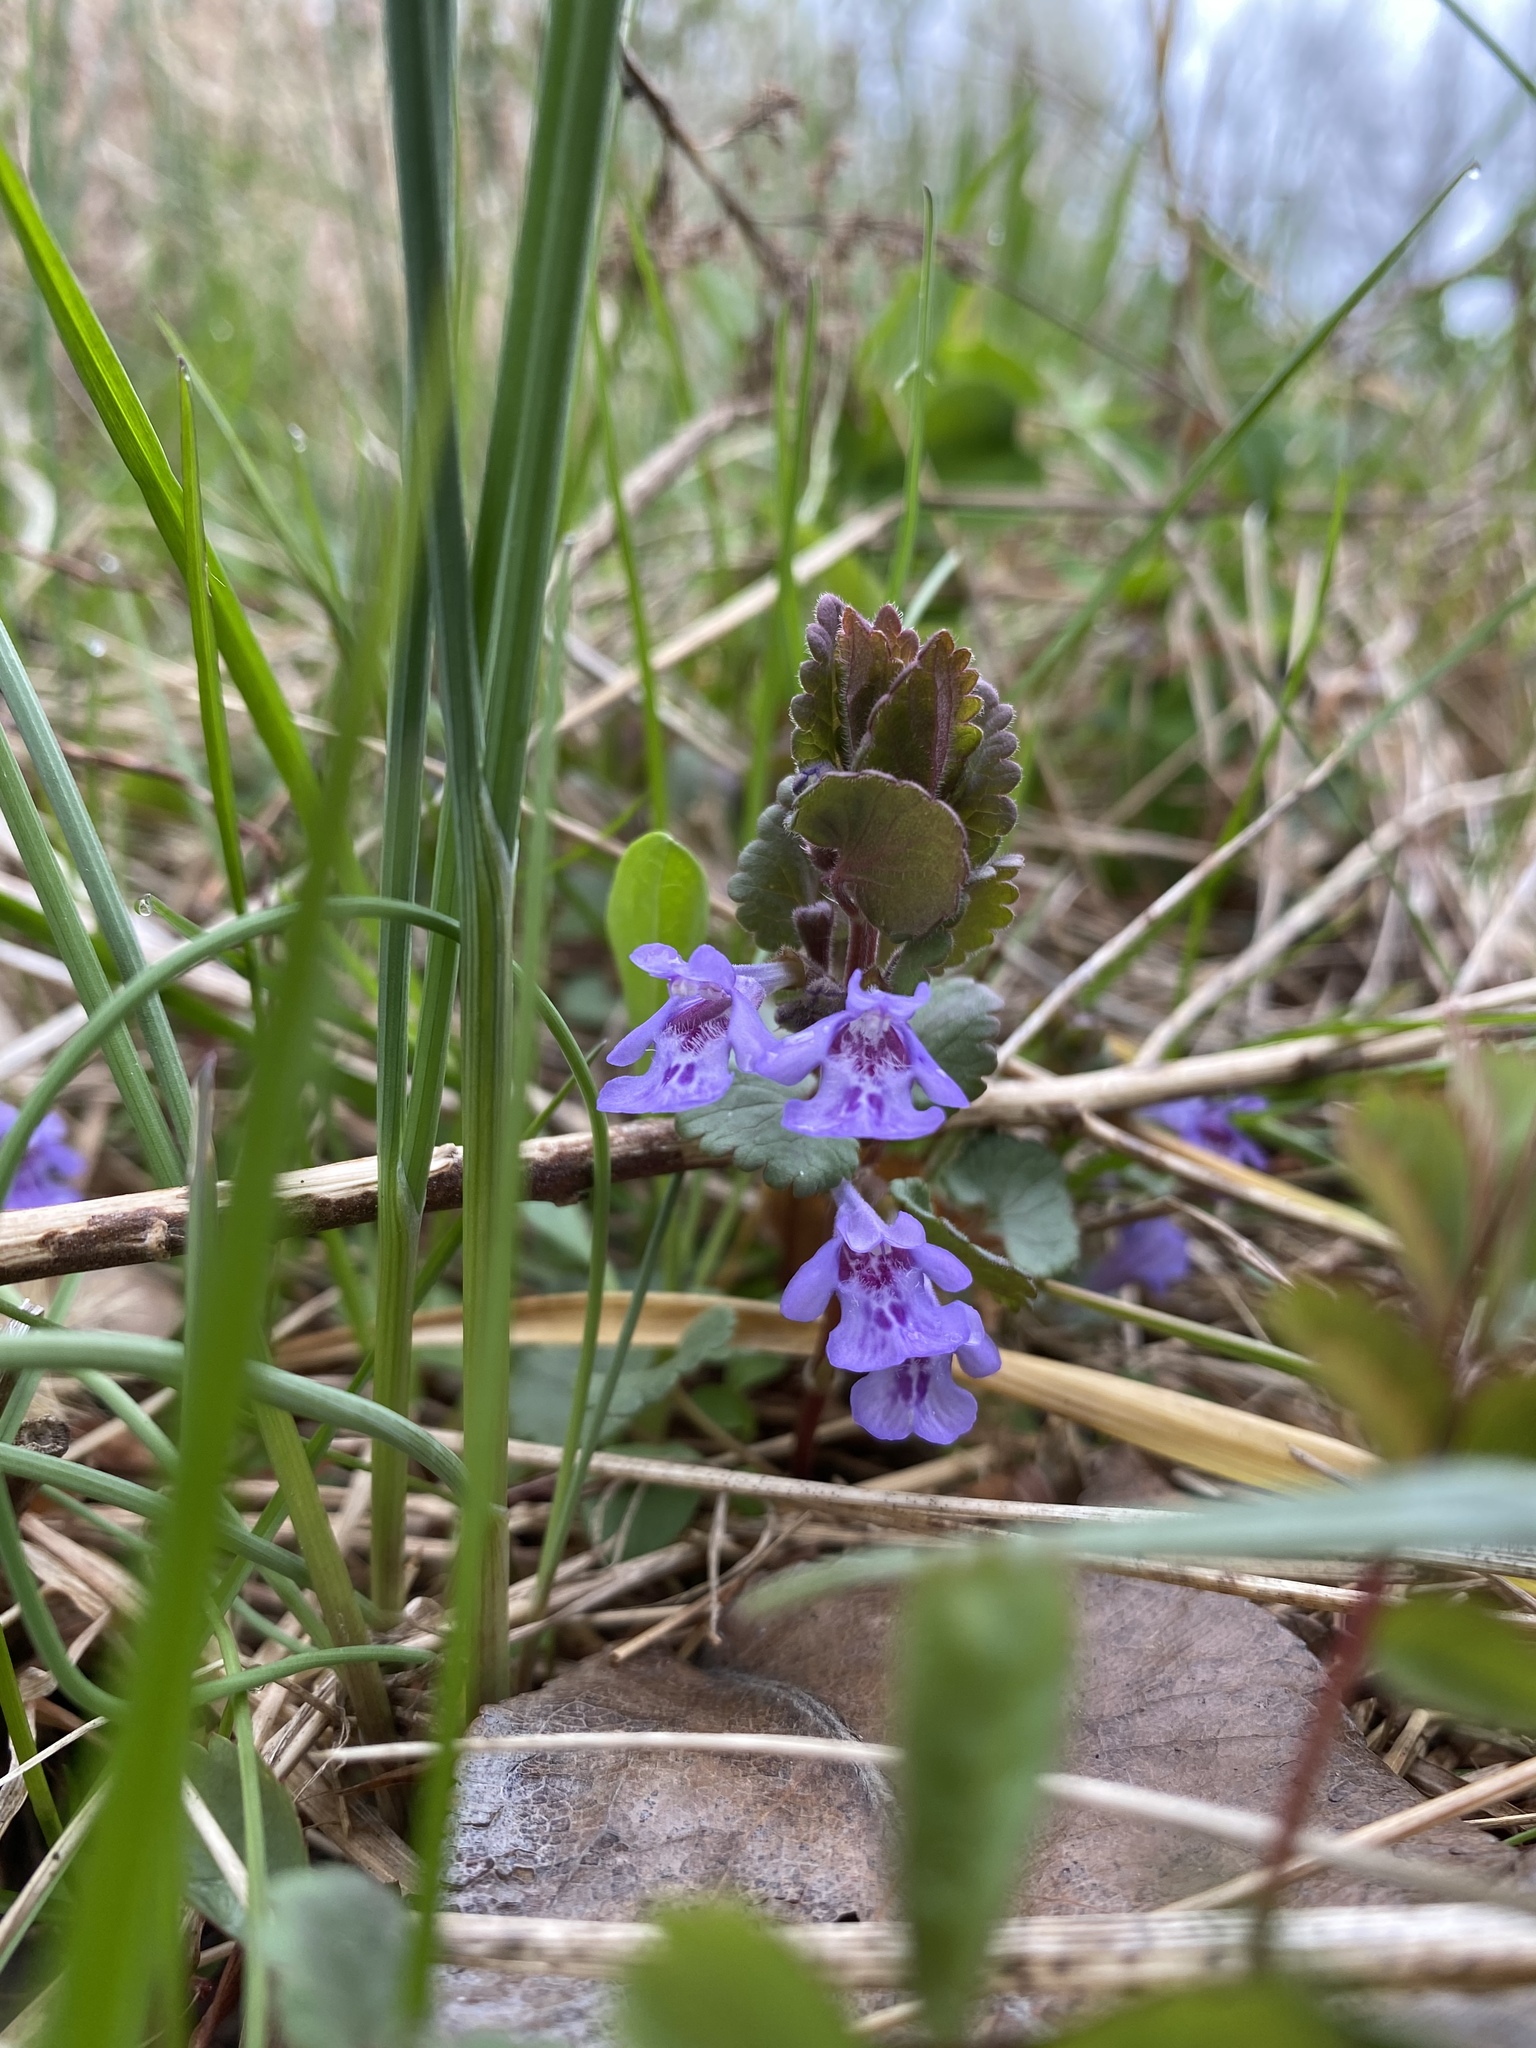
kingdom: Plantae
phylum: Tracheophyta
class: Magnoliopsida
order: Lamiales
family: Lamiaceae
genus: Glechoma
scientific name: Glechoma hederacea
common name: Ground ivy
